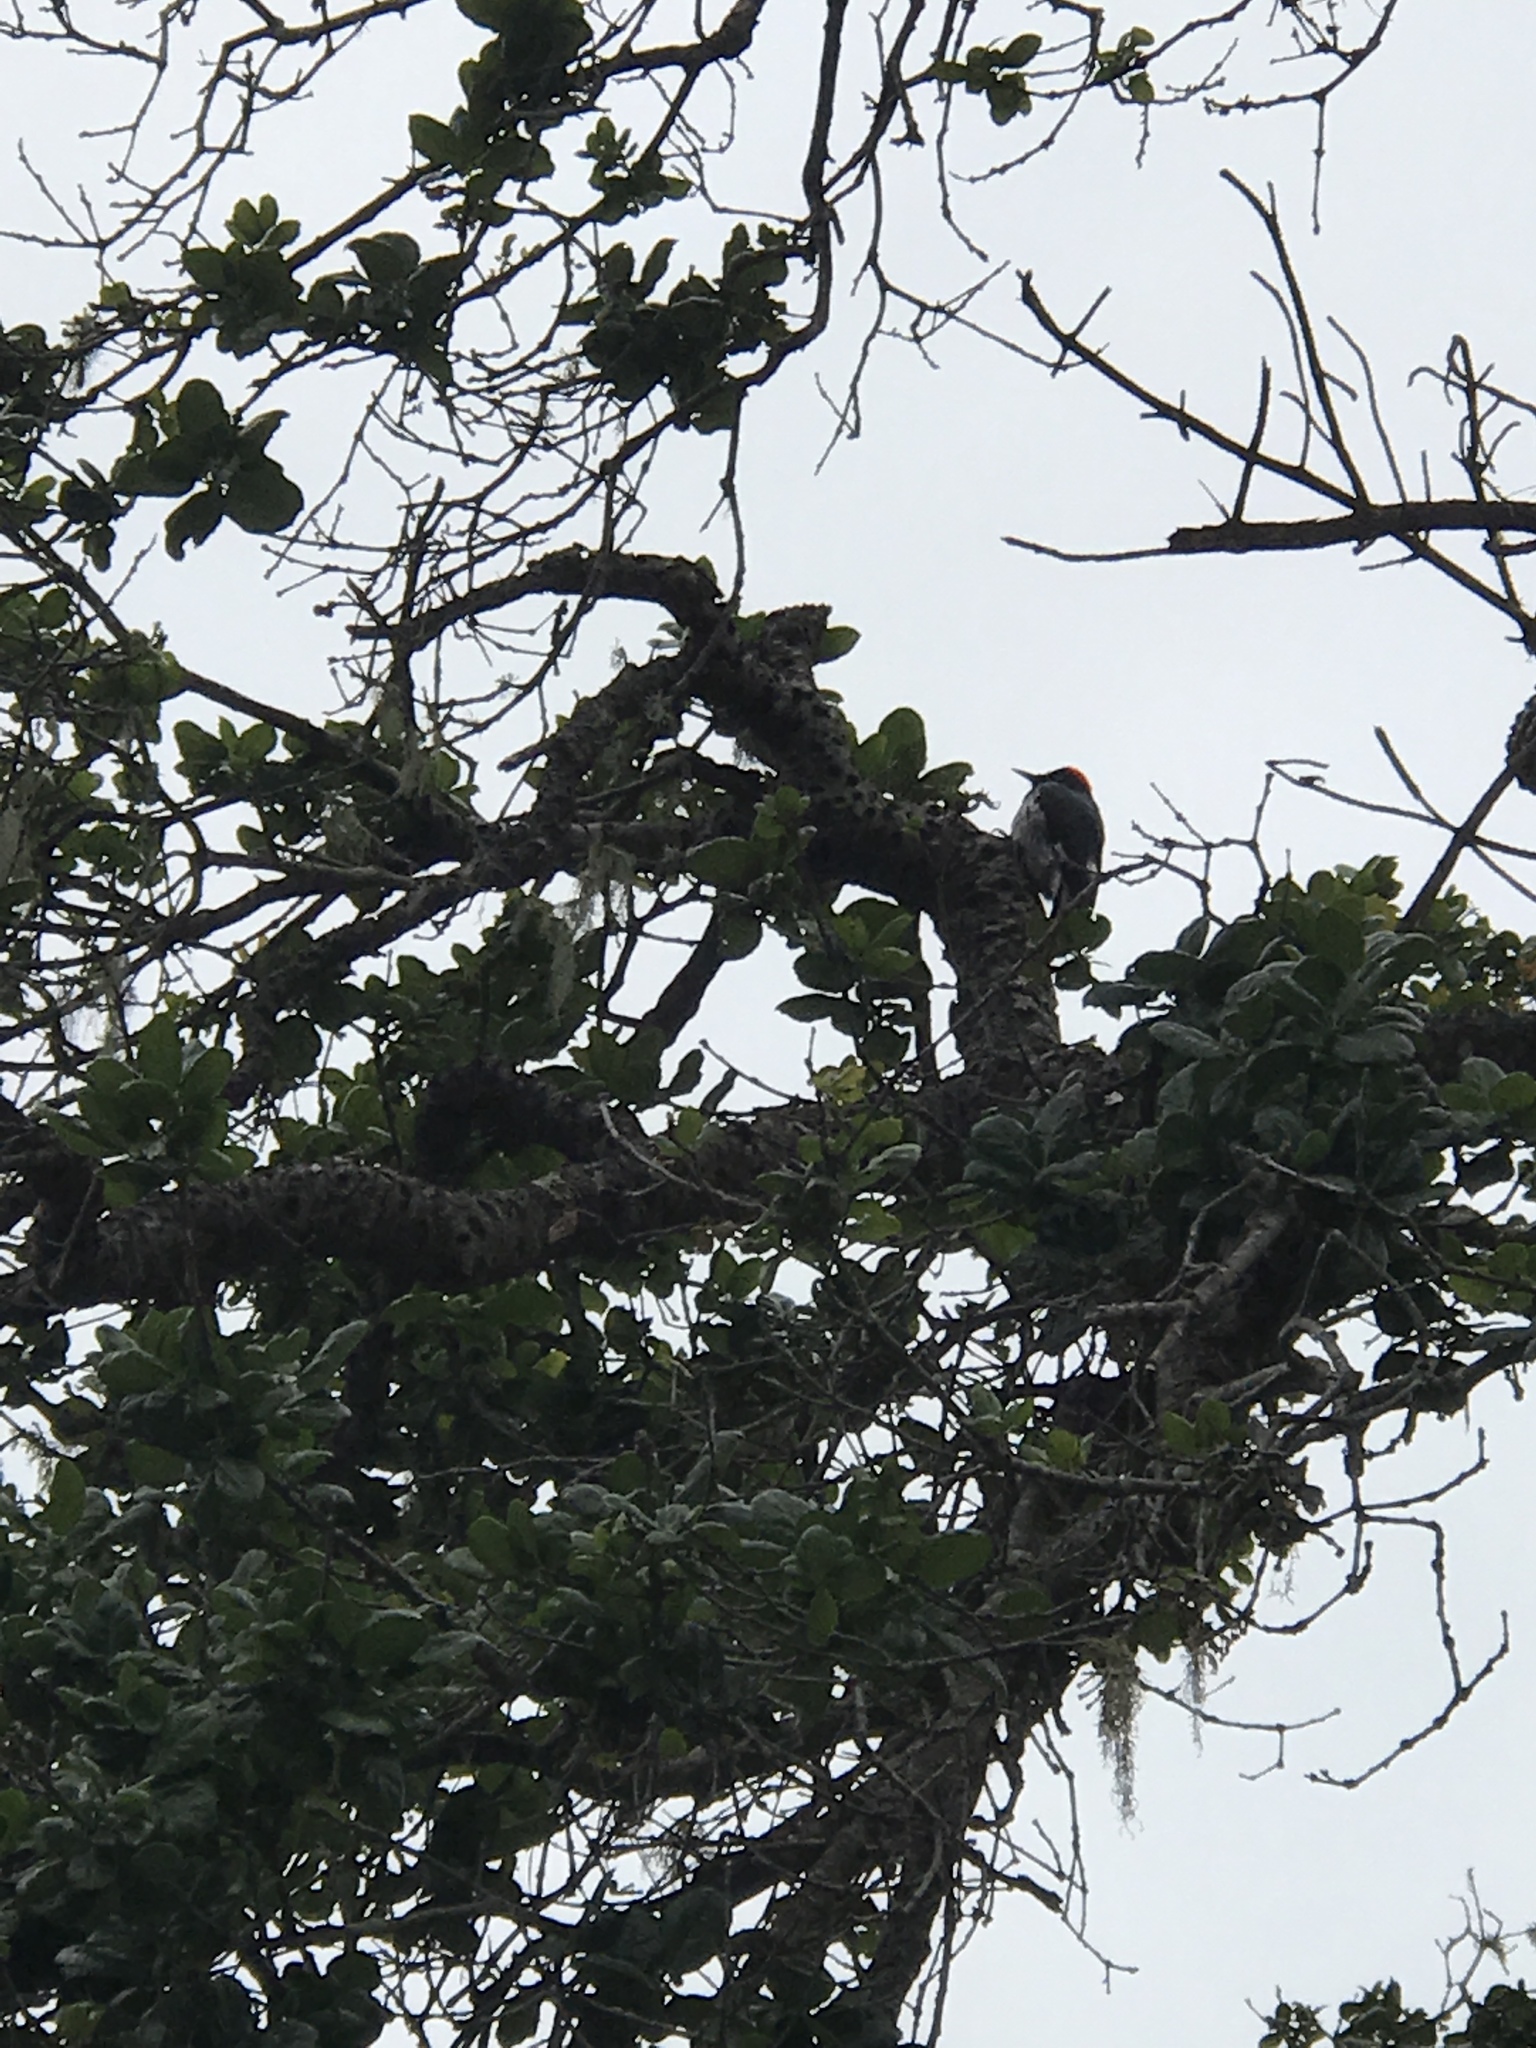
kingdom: Animalia
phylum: Chordata
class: Aves
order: Piciformes
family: Picidae
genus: Melanerpes
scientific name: Melanerpes formicivorus
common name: Acorn woodpecker
